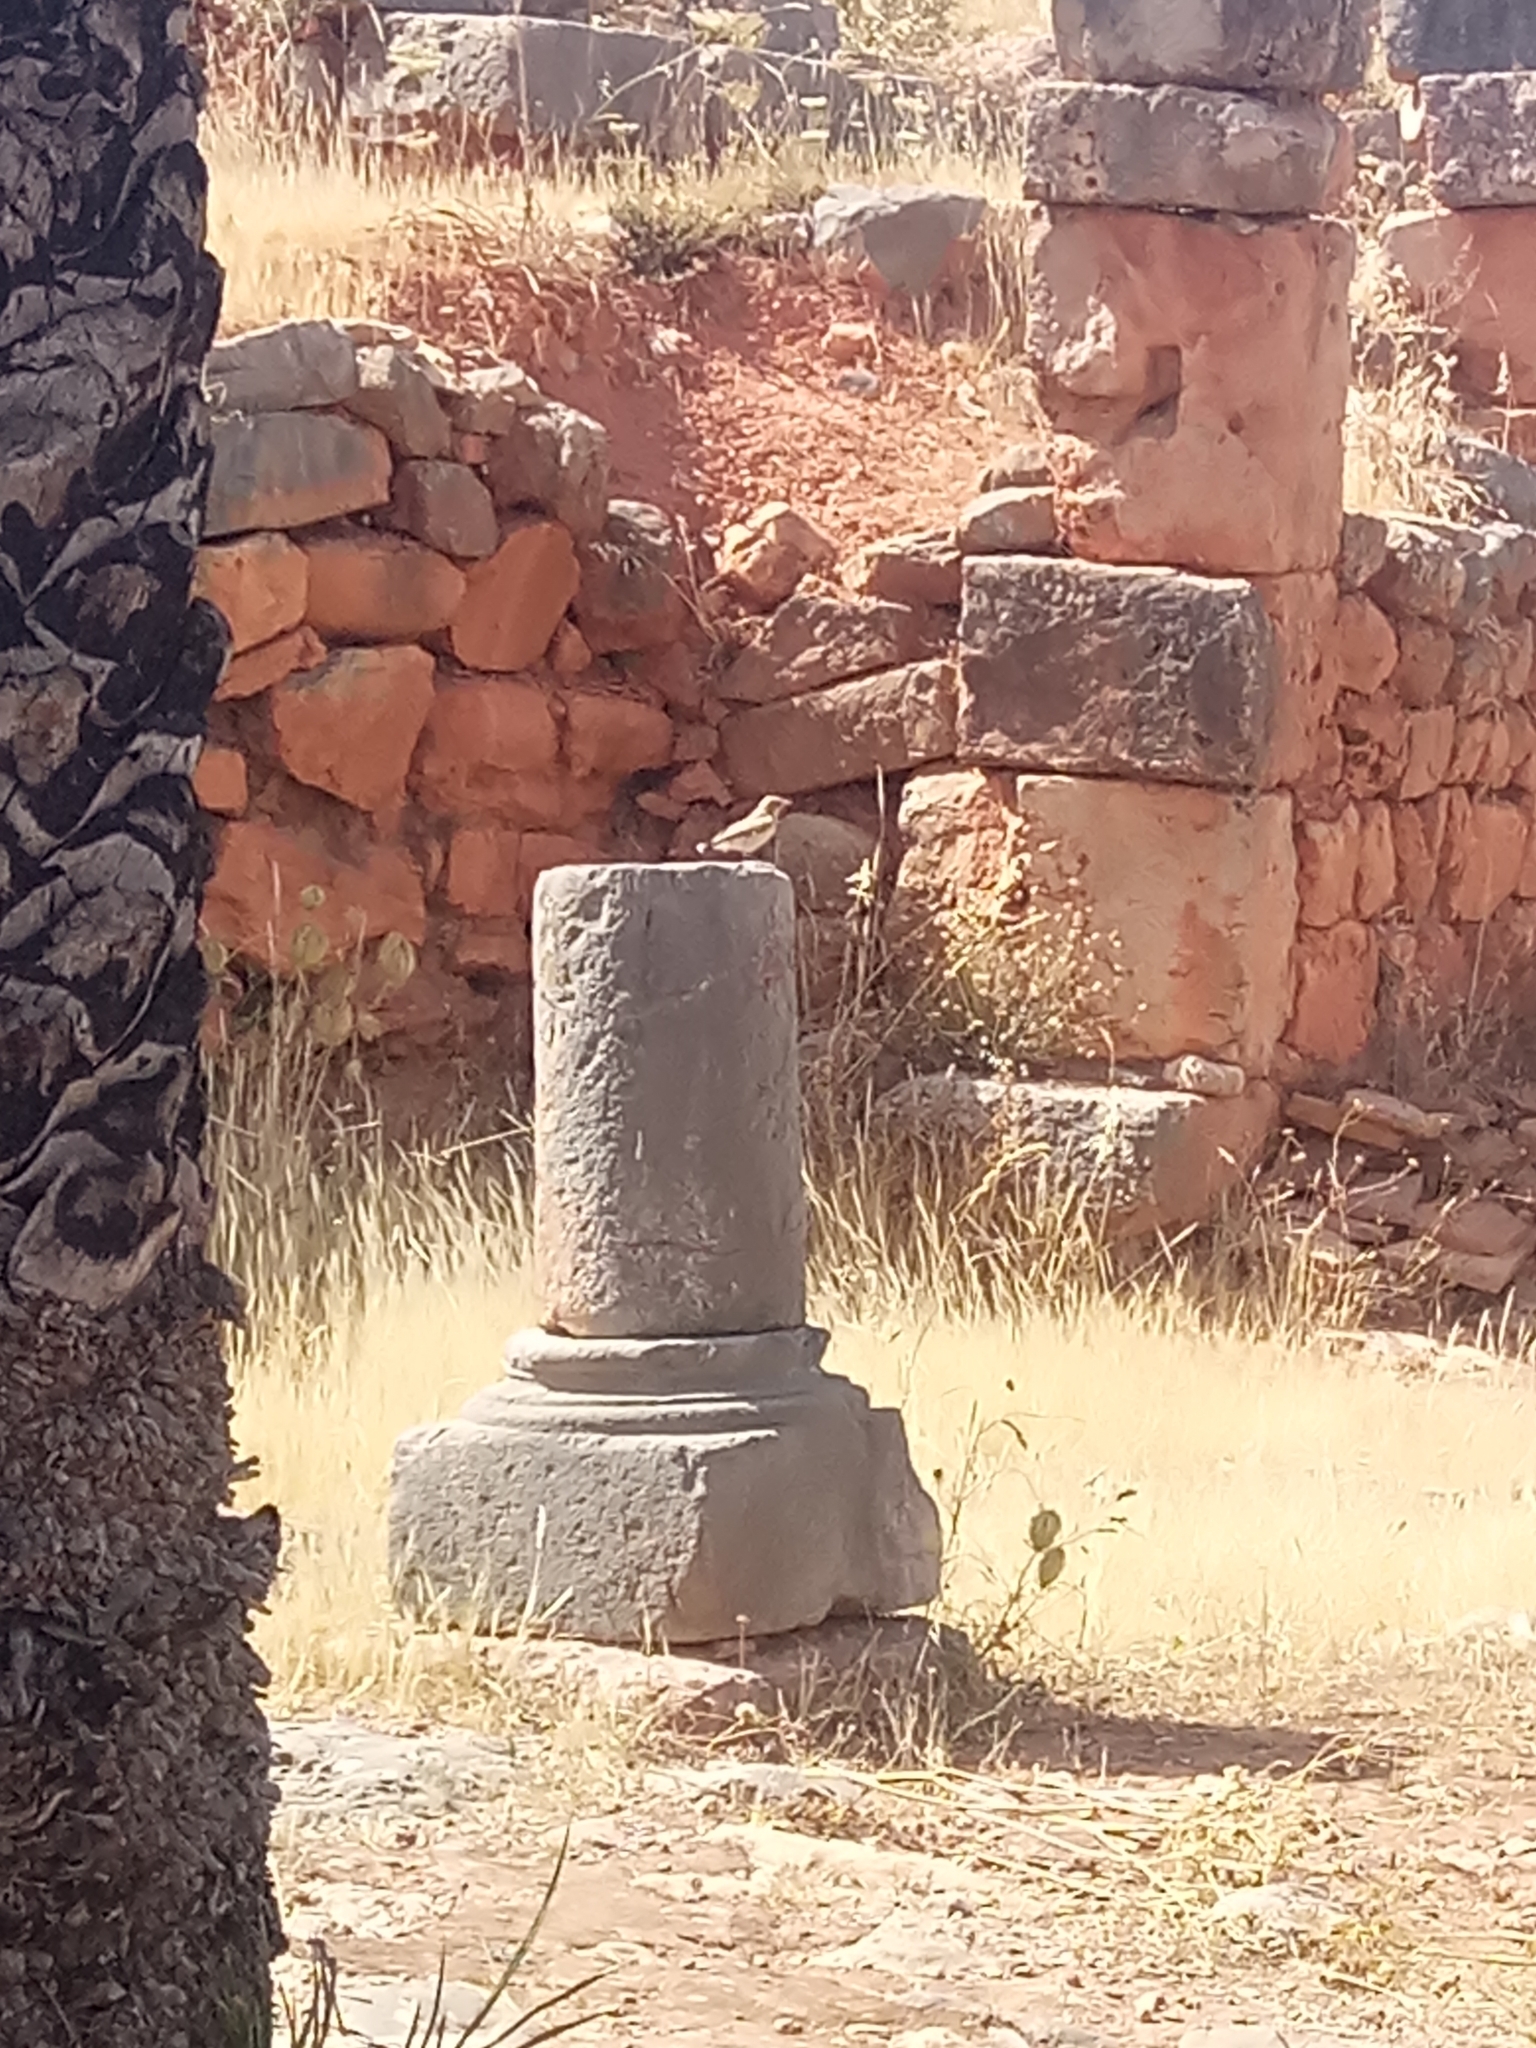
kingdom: Animalia
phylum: Chordata
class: Aves
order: Passeriformes
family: Muscicapidae
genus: Oenanthe
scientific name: Oenanthe hispanica
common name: Black-eared wheatear
